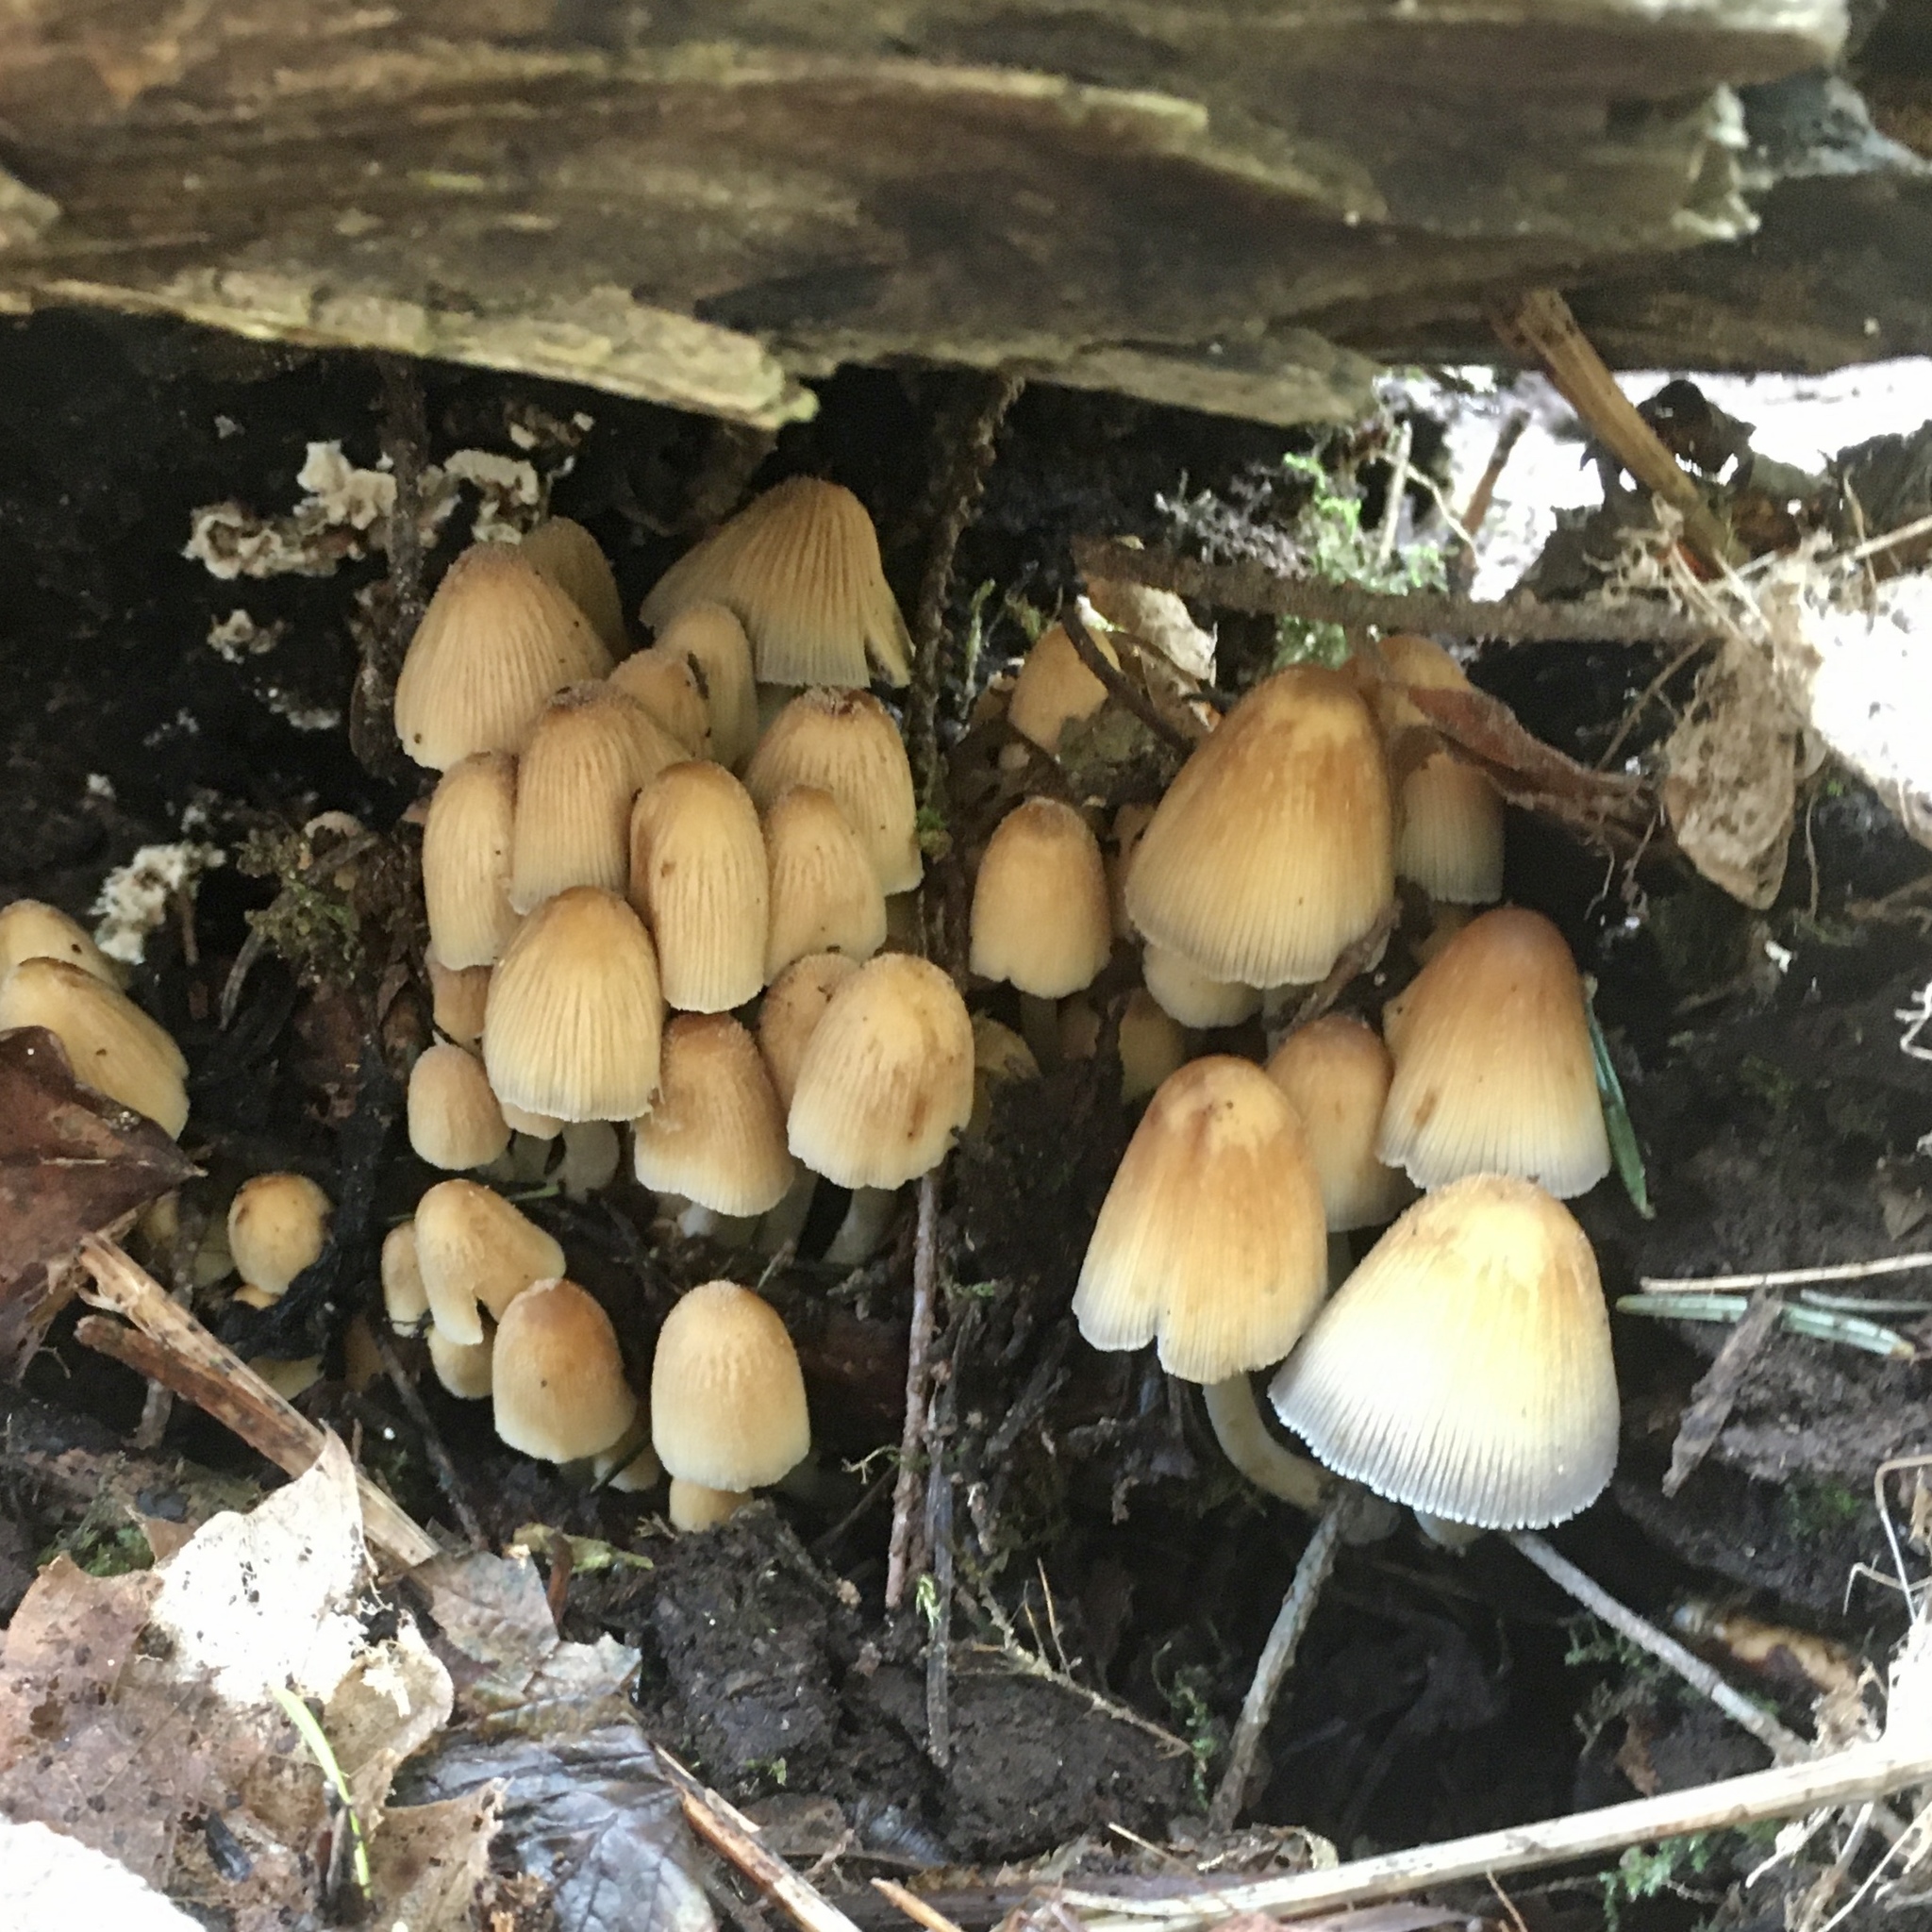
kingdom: Fungi
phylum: Basidiomycota
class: Agaricomycetes
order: Agaricales
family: Psathyrellaceae
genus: Coprinellus
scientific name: Coprinellus micaceus
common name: Glistening ink-cap
